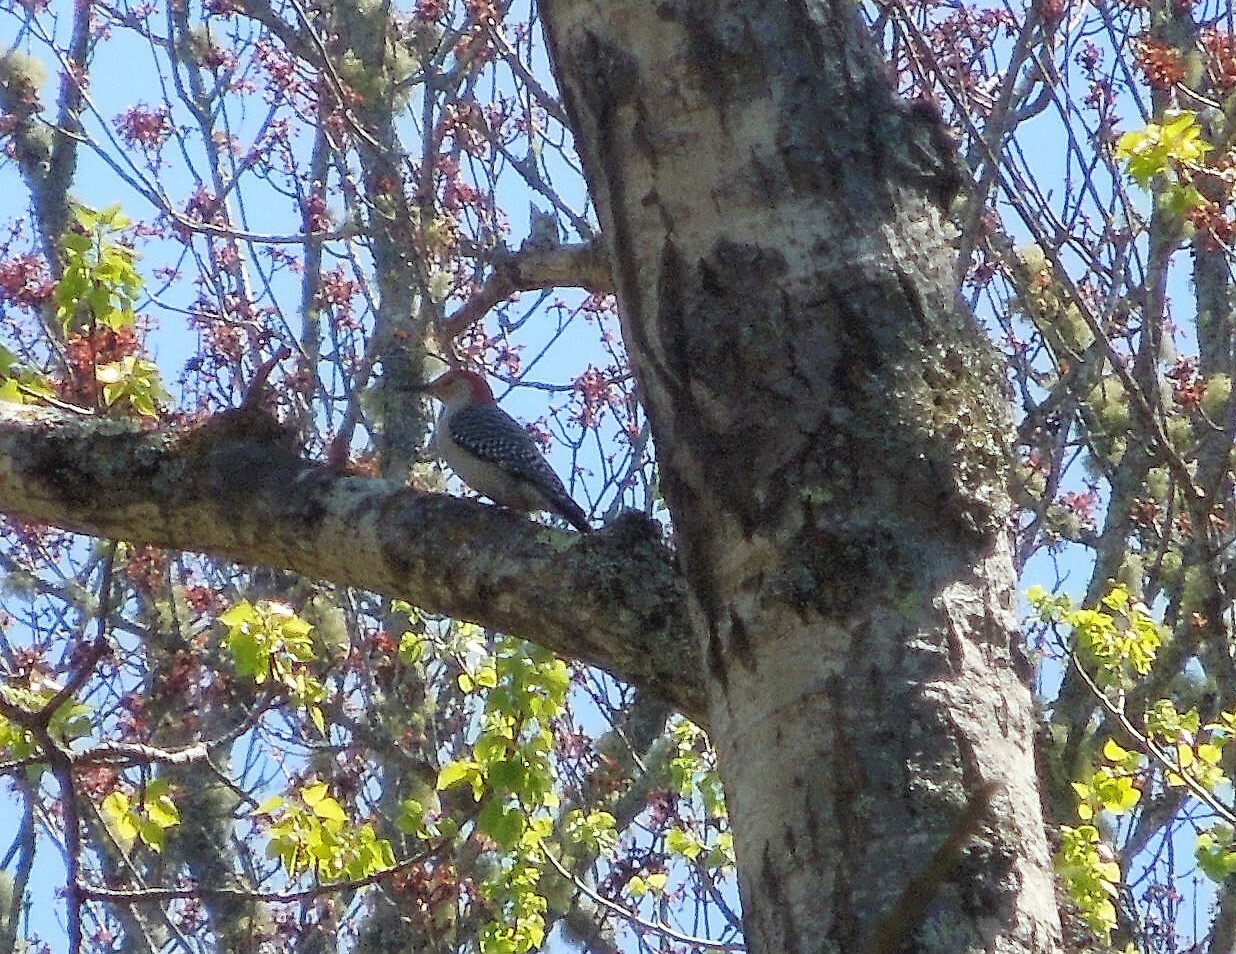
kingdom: Animalia
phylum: Chordata
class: Aves
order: Piciformes
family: Picidae
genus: Melanerpes
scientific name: Melanerpes carolinus
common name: Red-bellied woodpecker
